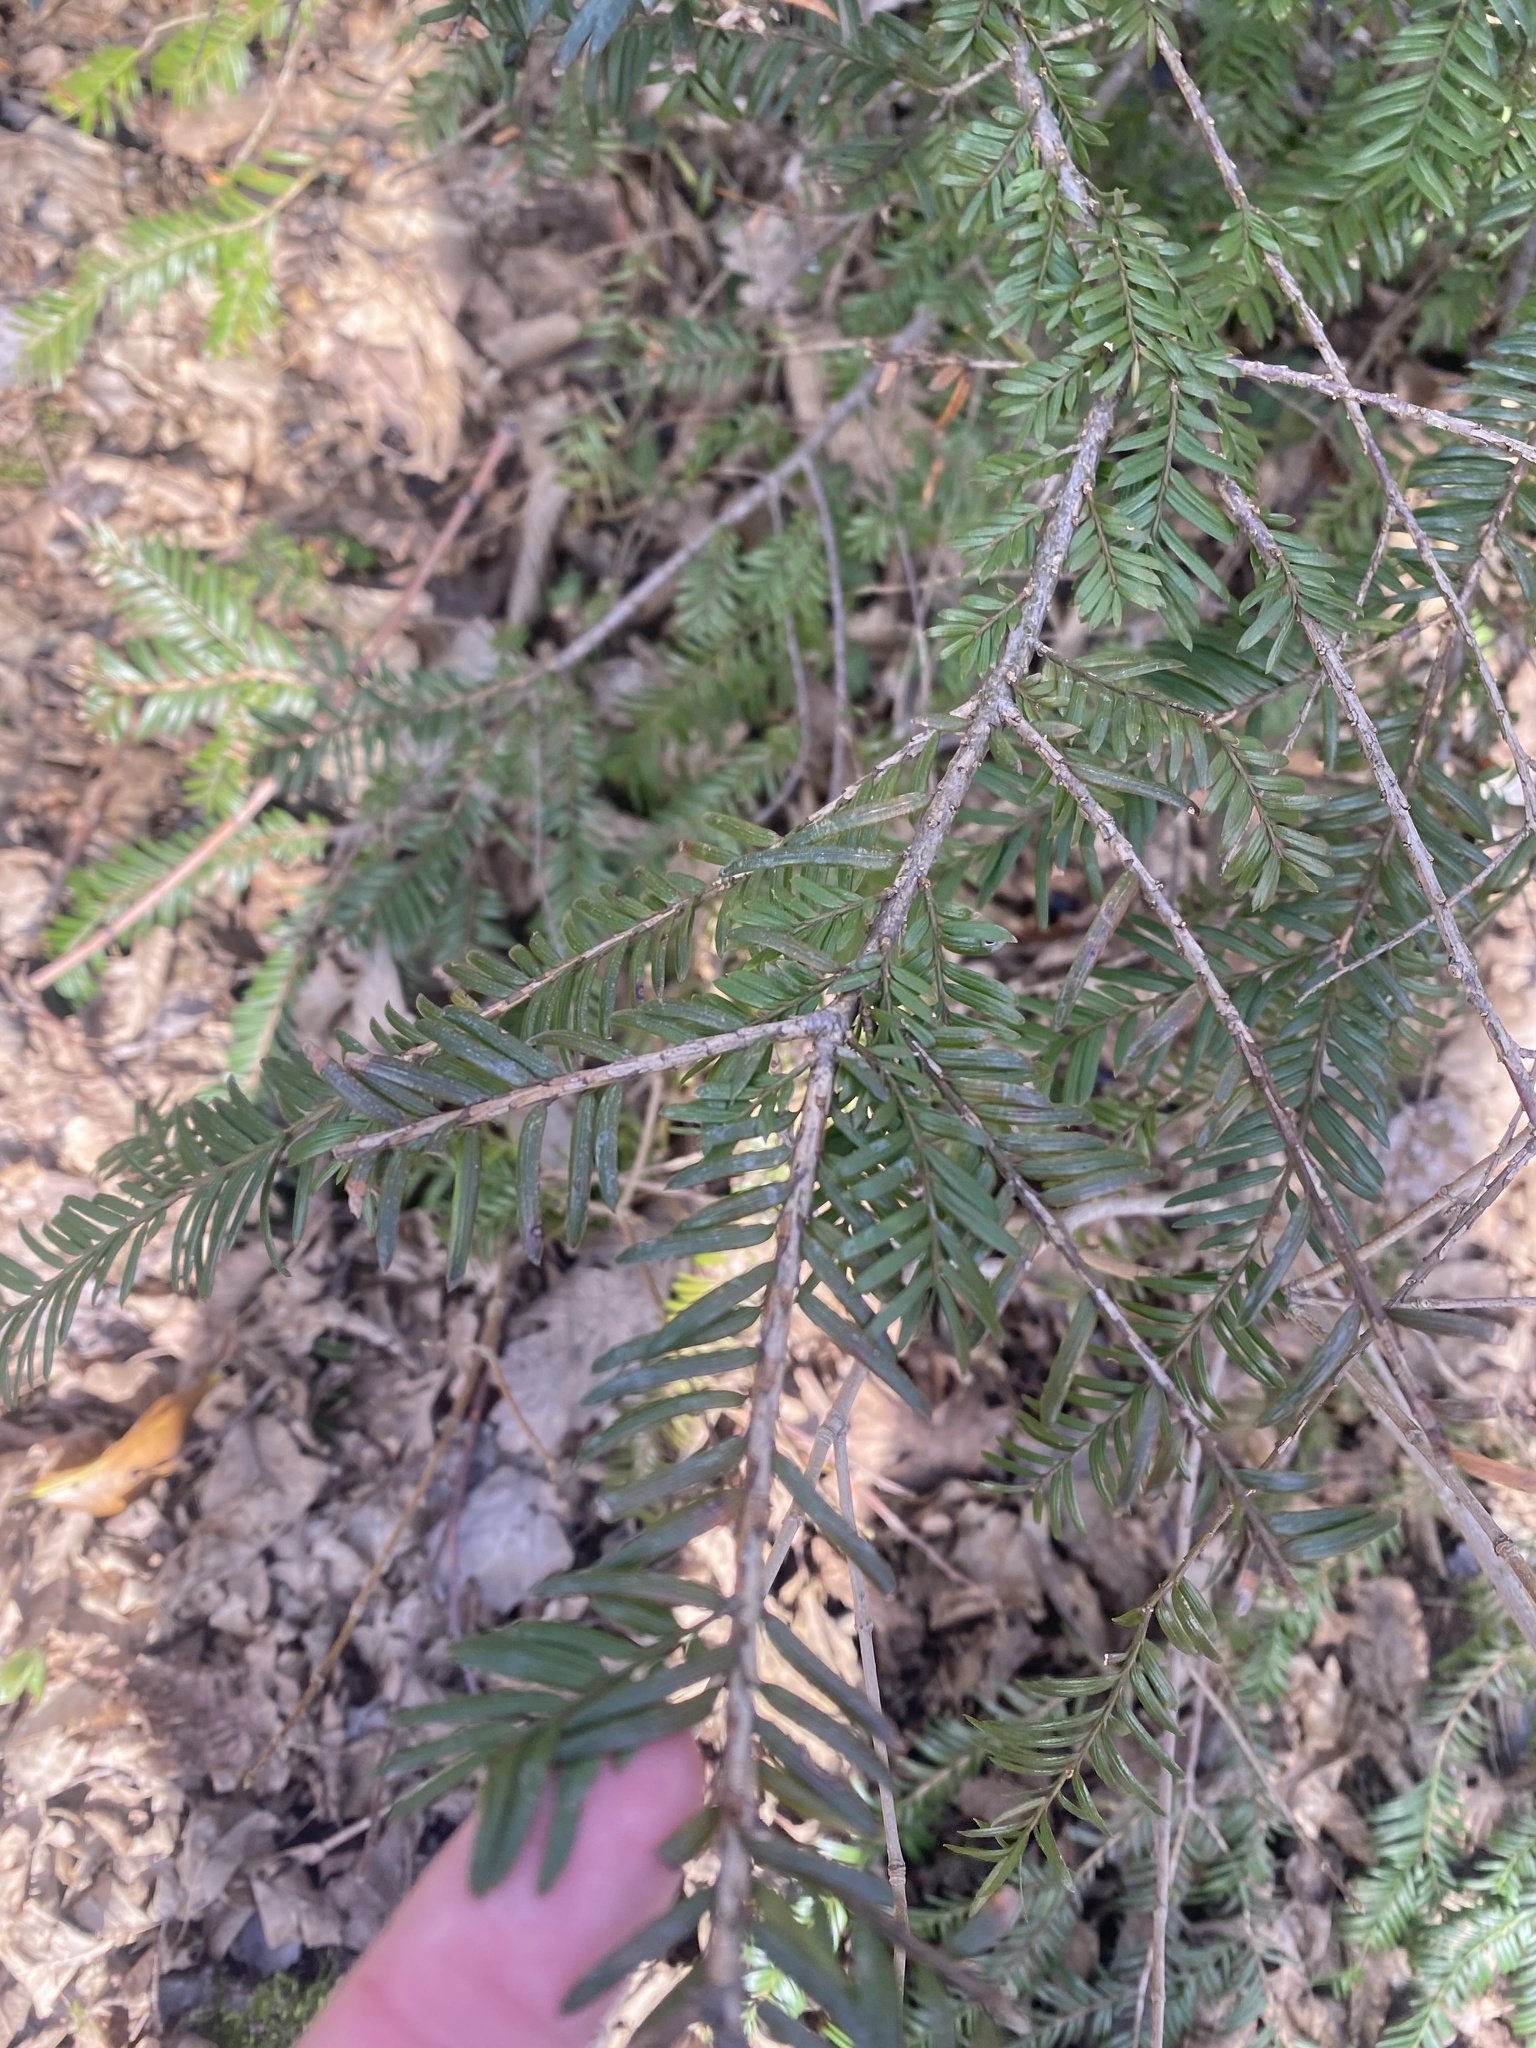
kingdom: Plantae
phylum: Tracheophyta
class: Pinopsida
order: Pinales
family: Taxaceae
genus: Taxus
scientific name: Taxus baccata
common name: Yew
